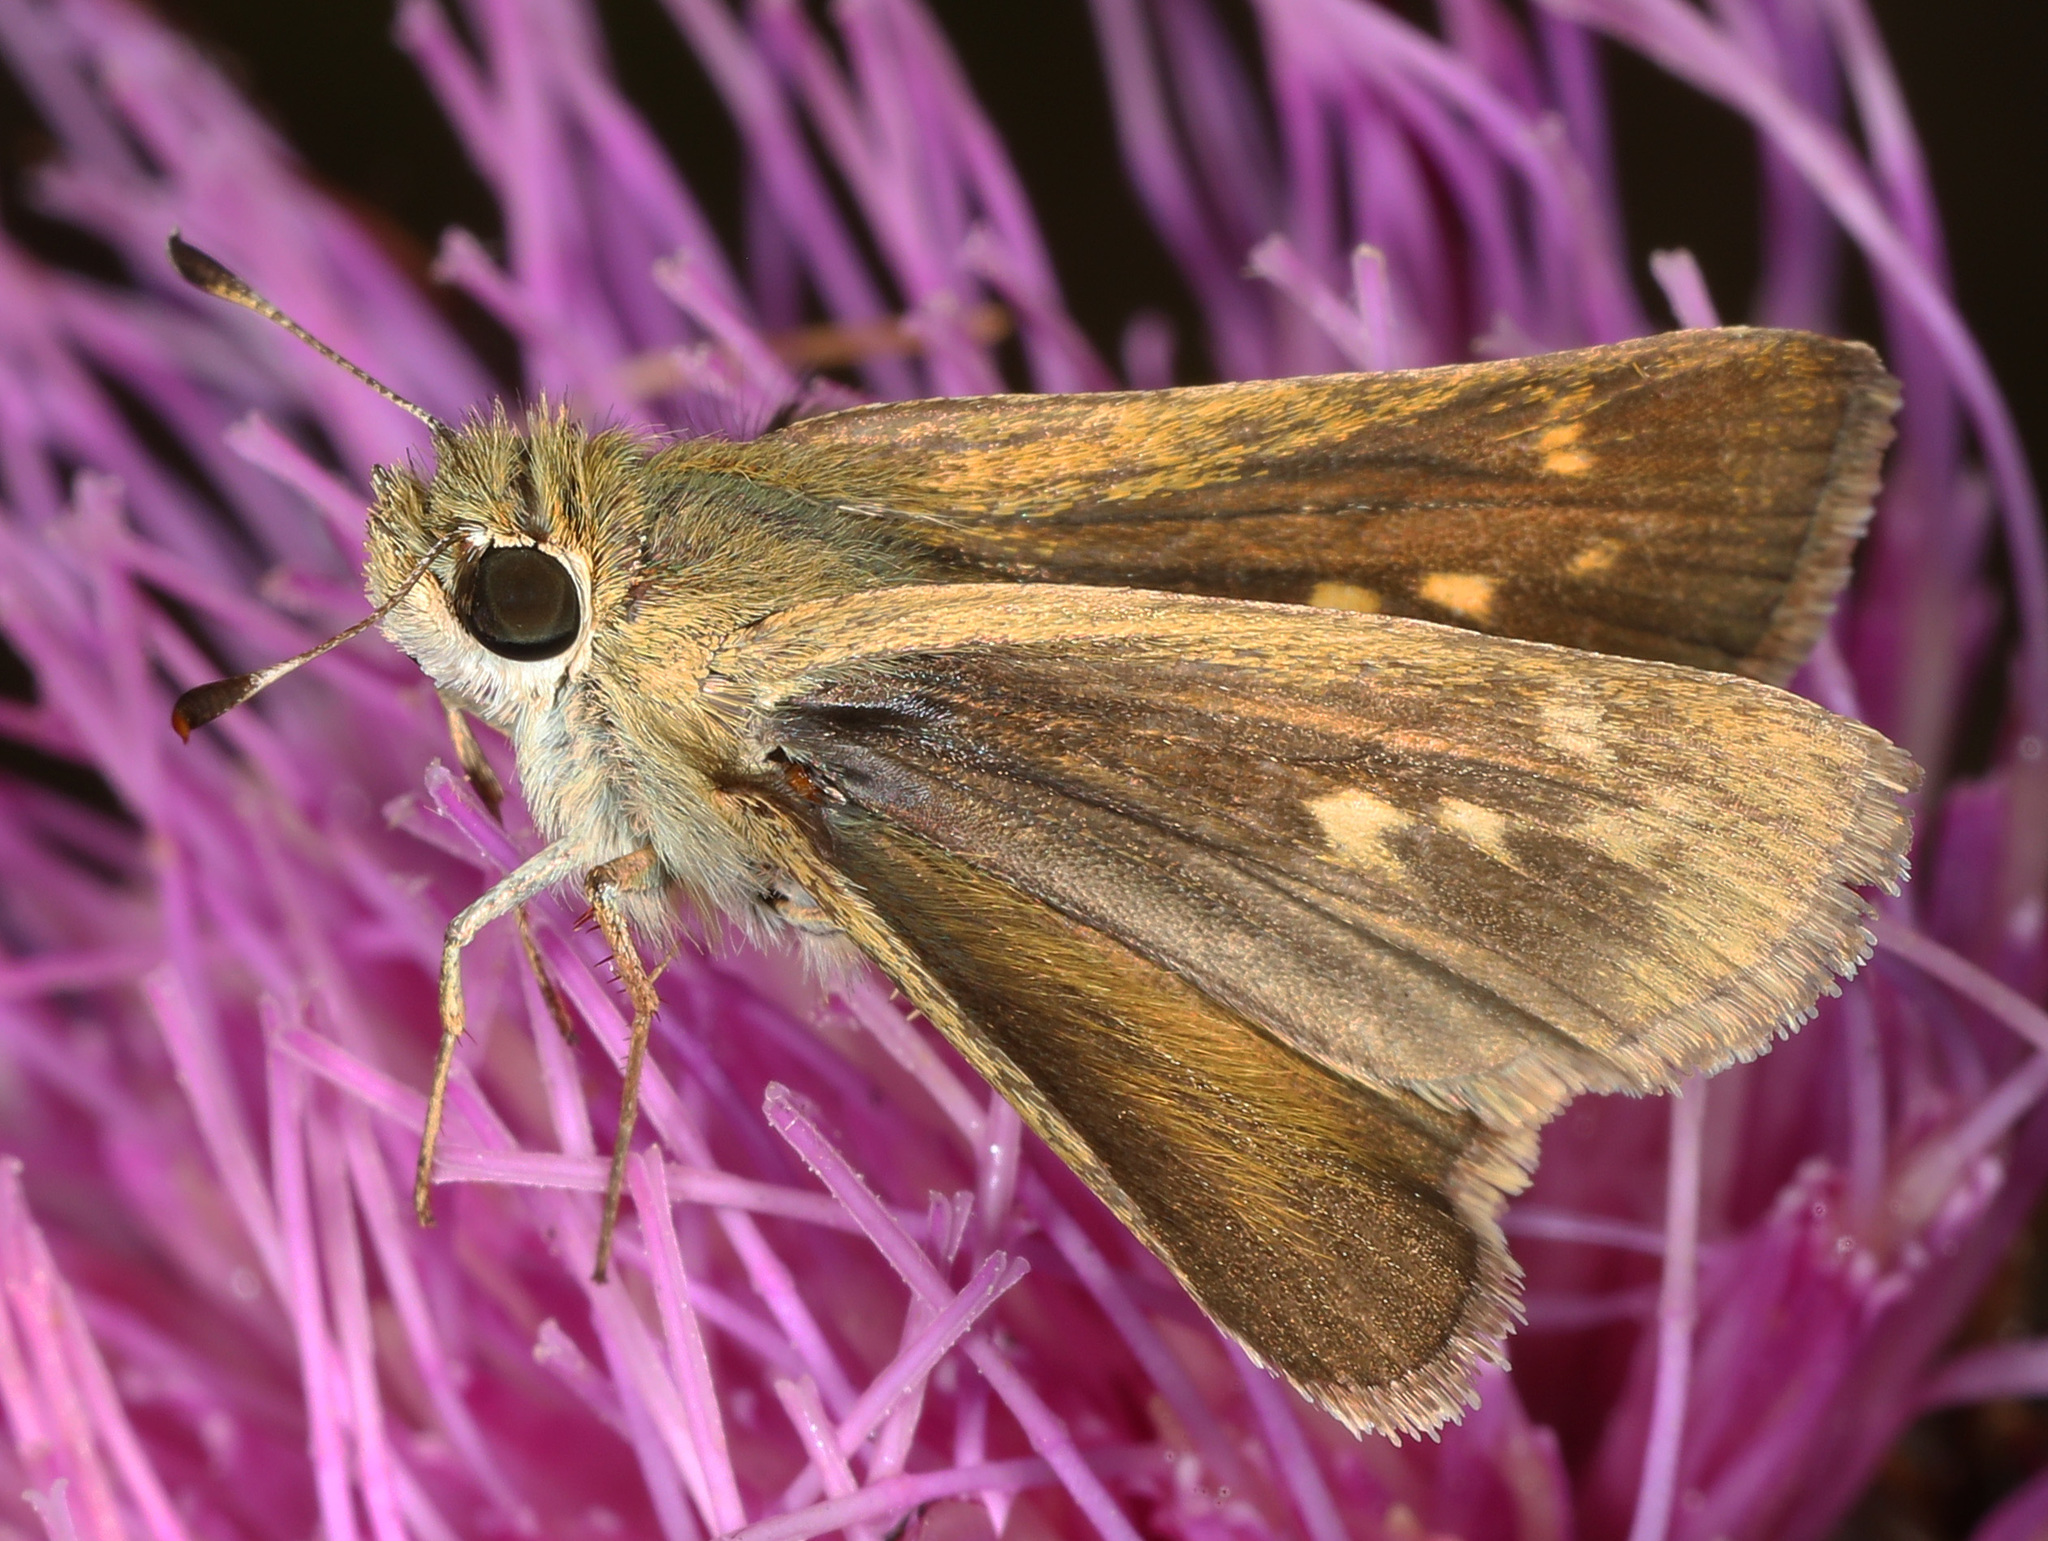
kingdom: Animalia
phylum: Arthropoda
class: Insecta
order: Lepidoptera
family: Hesperiidae
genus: Polites
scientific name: Polites vibex
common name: Whirlabout
